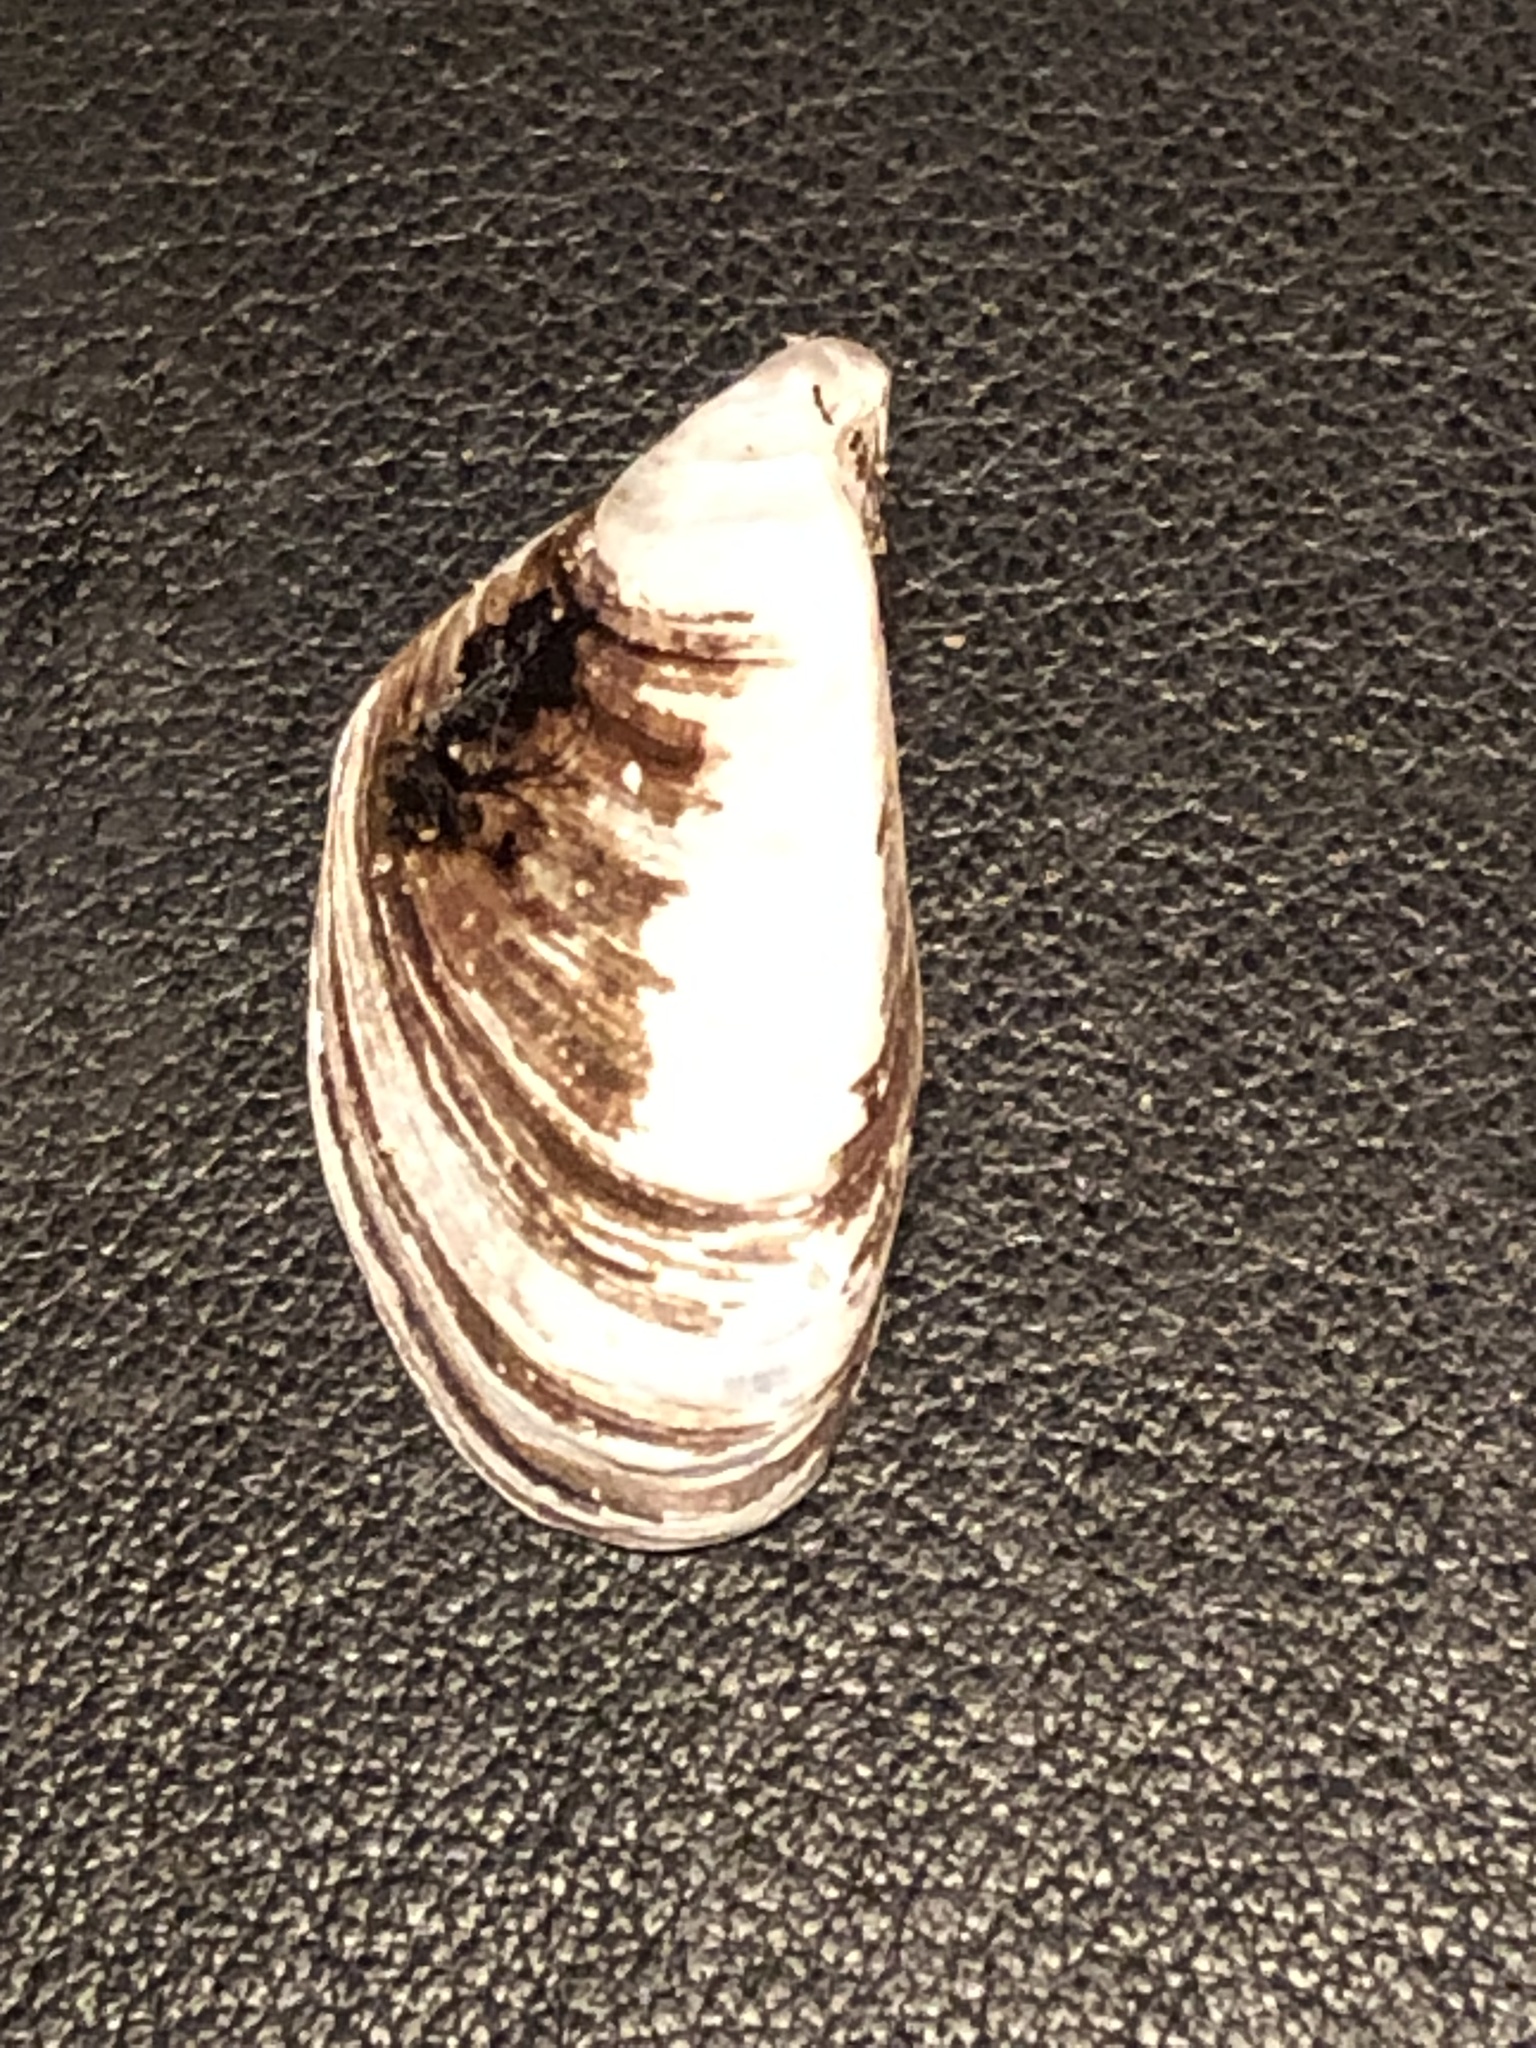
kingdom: Animalia
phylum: Mollusca
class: Bivalvia
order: Myida
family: Dreissenidae
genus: Dreissena
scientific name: Dreissena polymorpha
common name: Zebra mussel
